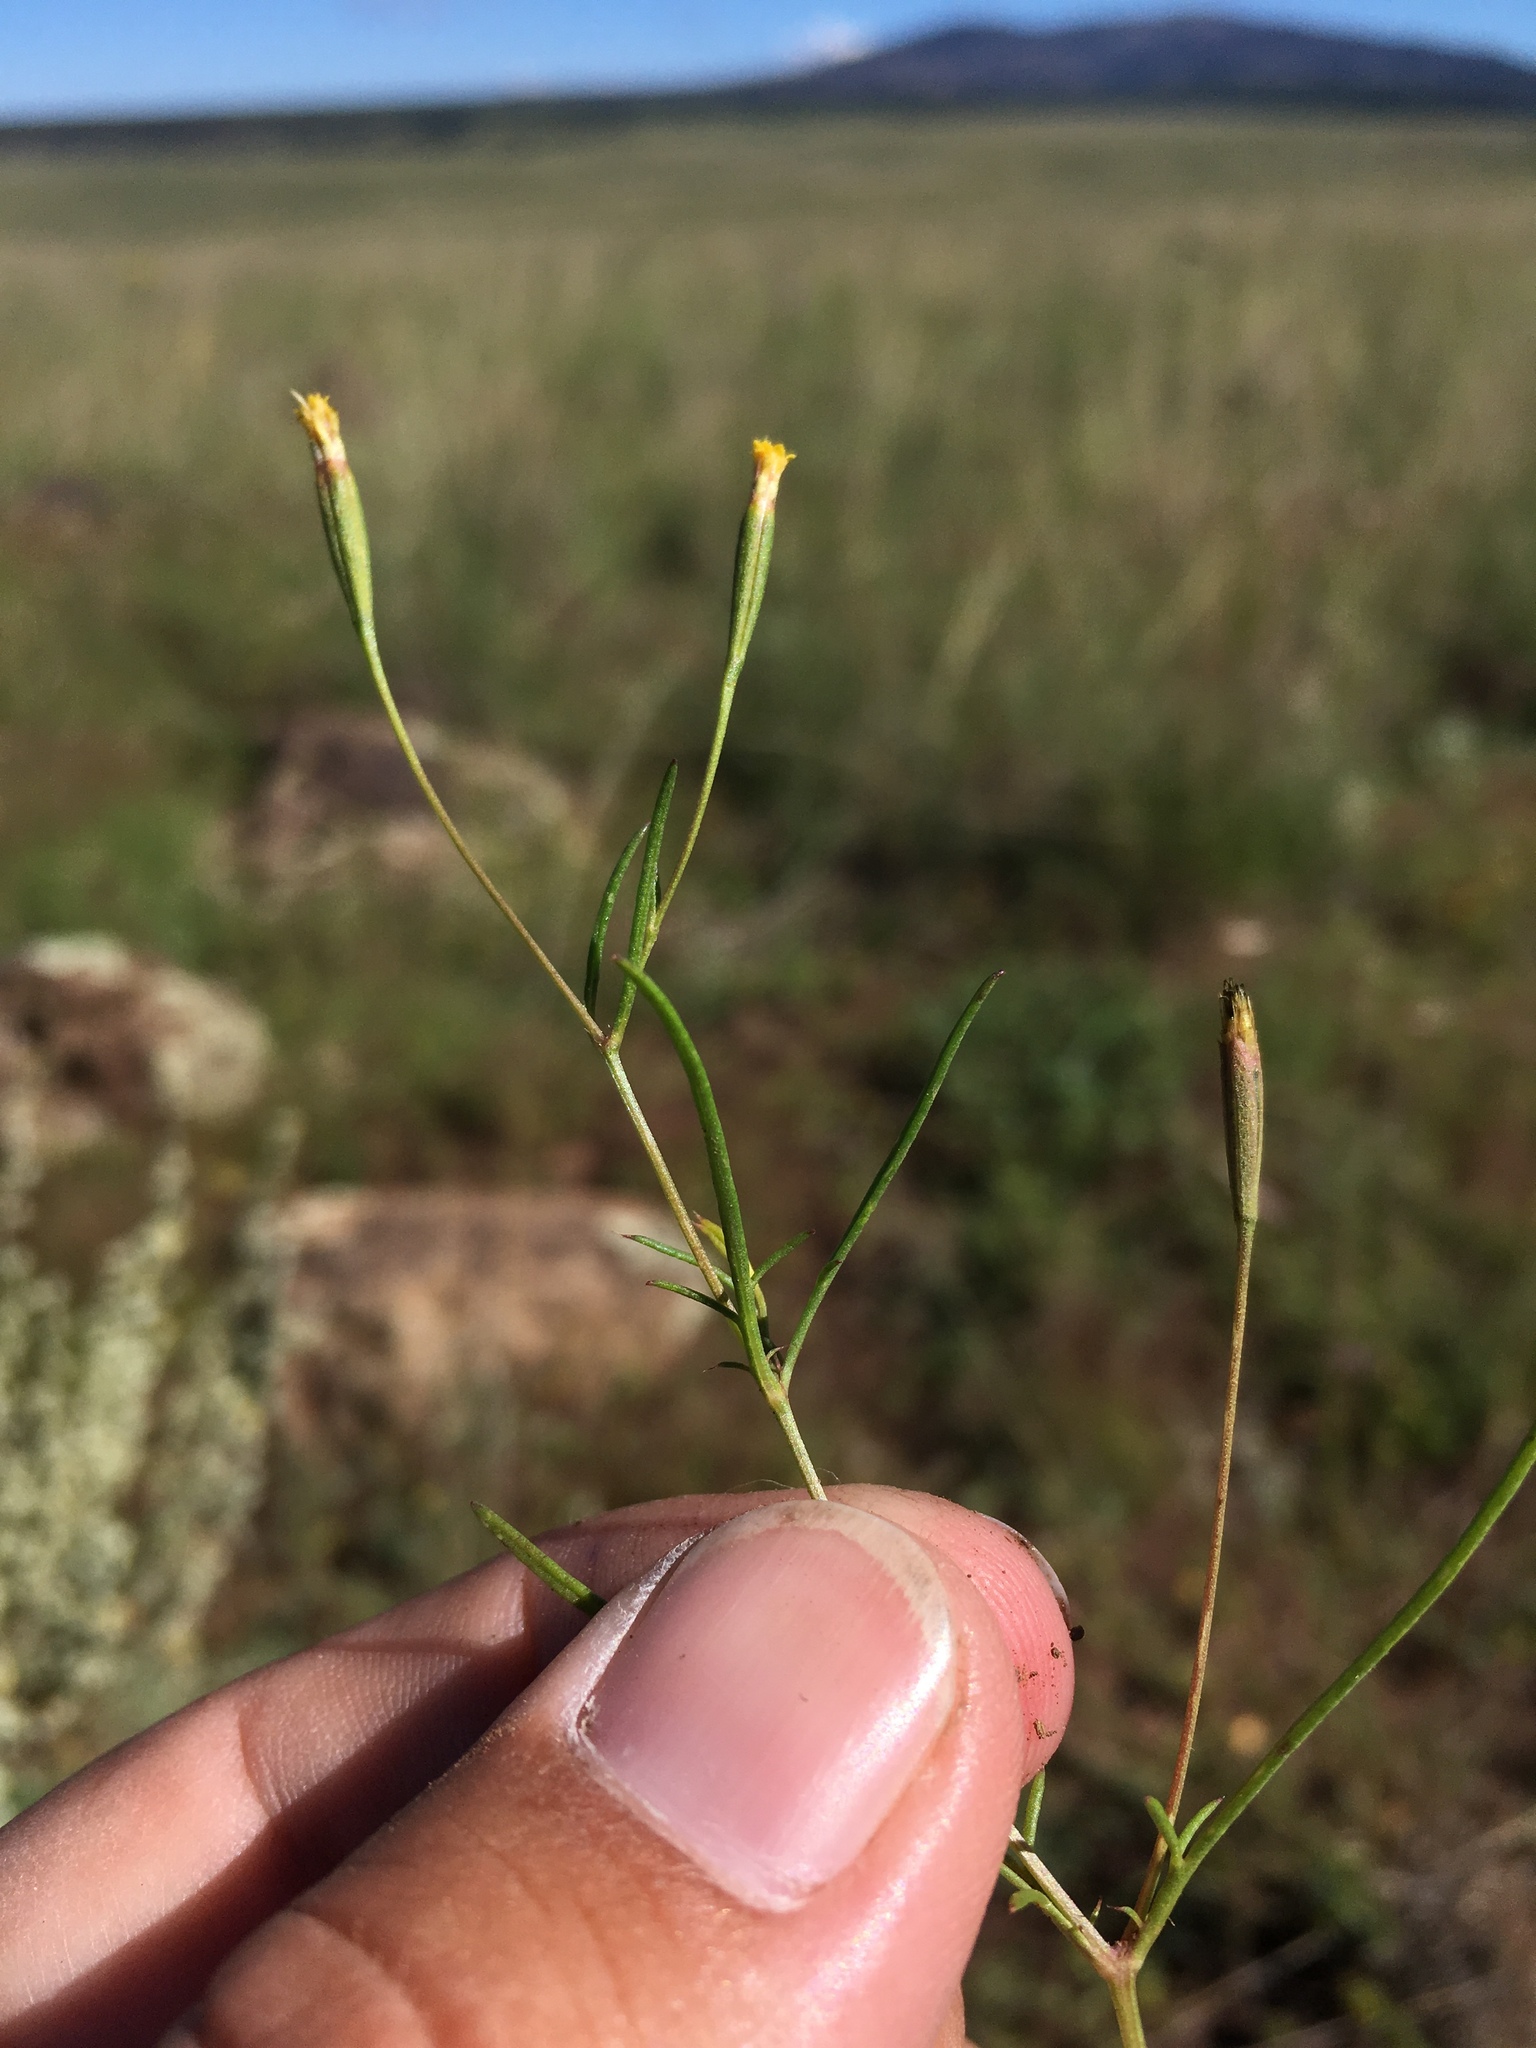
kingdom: Plantae
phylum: Tracheophyta
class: Magnoliopsida
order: Asterales
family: Asteraceae
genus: Tagetes
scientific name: Tagetes micrantha
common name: Licorice marigold
